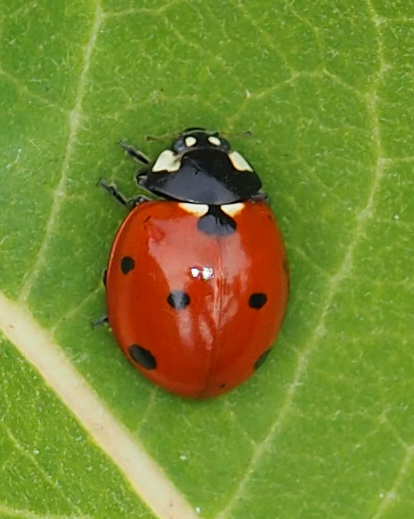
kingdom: Animalia
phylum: Arthropoda
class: Insecta
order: Coleoptera
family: Coccinellidae
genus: Coccinella
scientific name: Coccinella septempunctata
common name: Sevenspotted lady beetle
